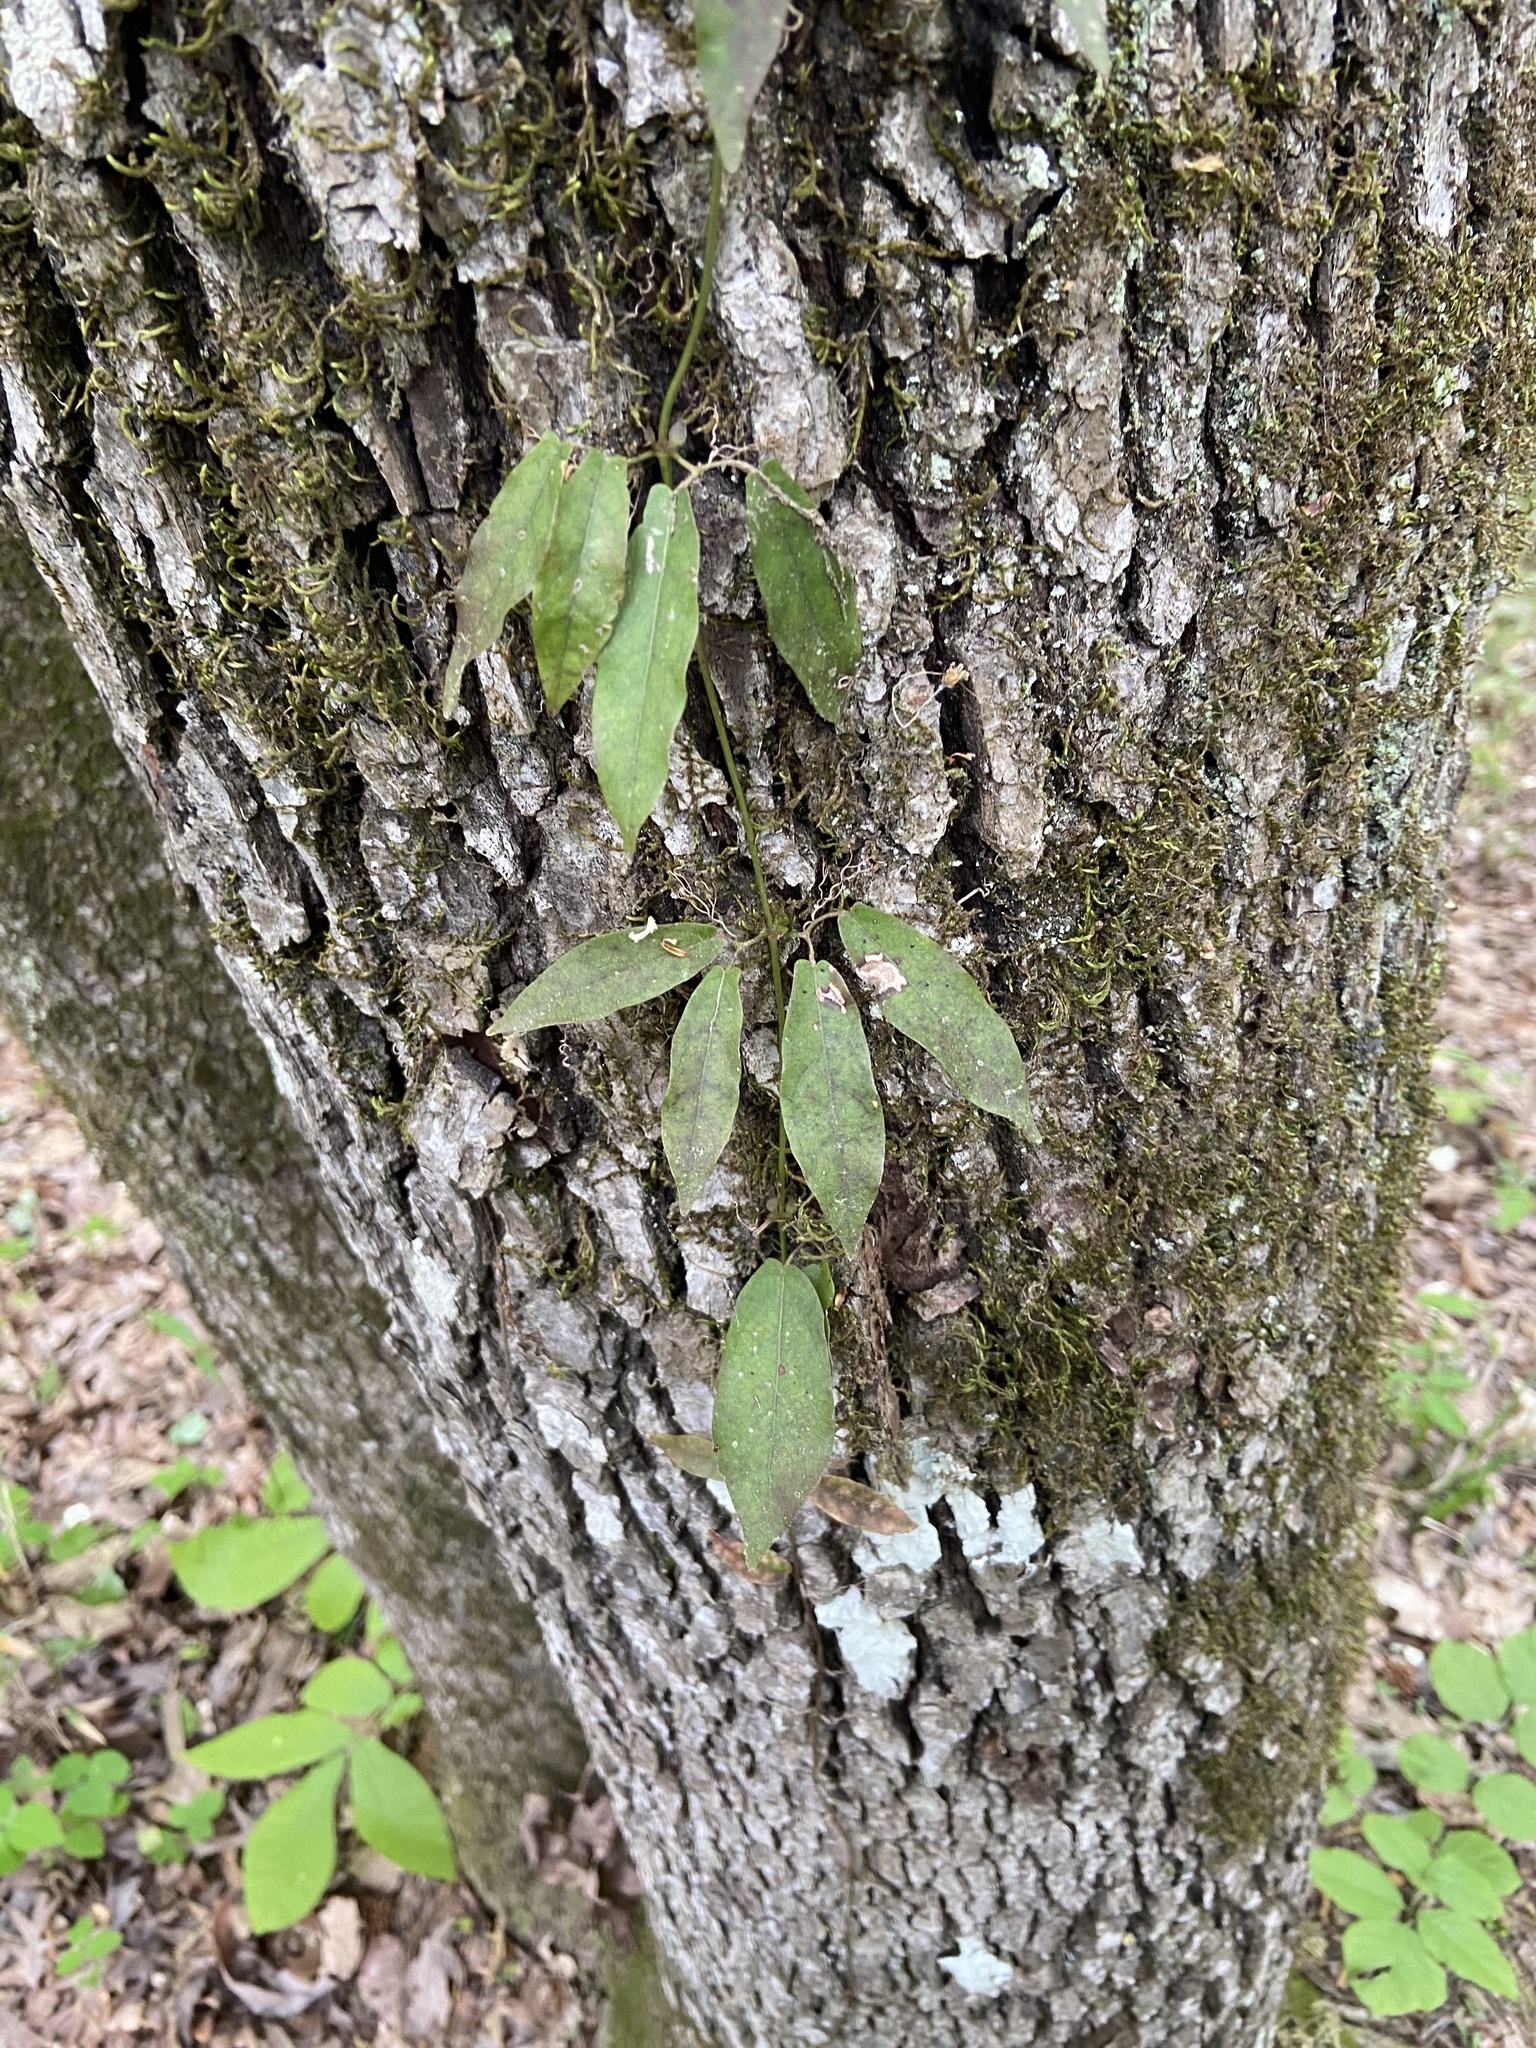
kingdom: Plantae
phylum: Tracheophyta
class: Magnoliopsida
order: Lamiales
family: Bignoniaceae
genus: Bignonia
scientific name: Bignonia capreolata
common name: Crossvine
